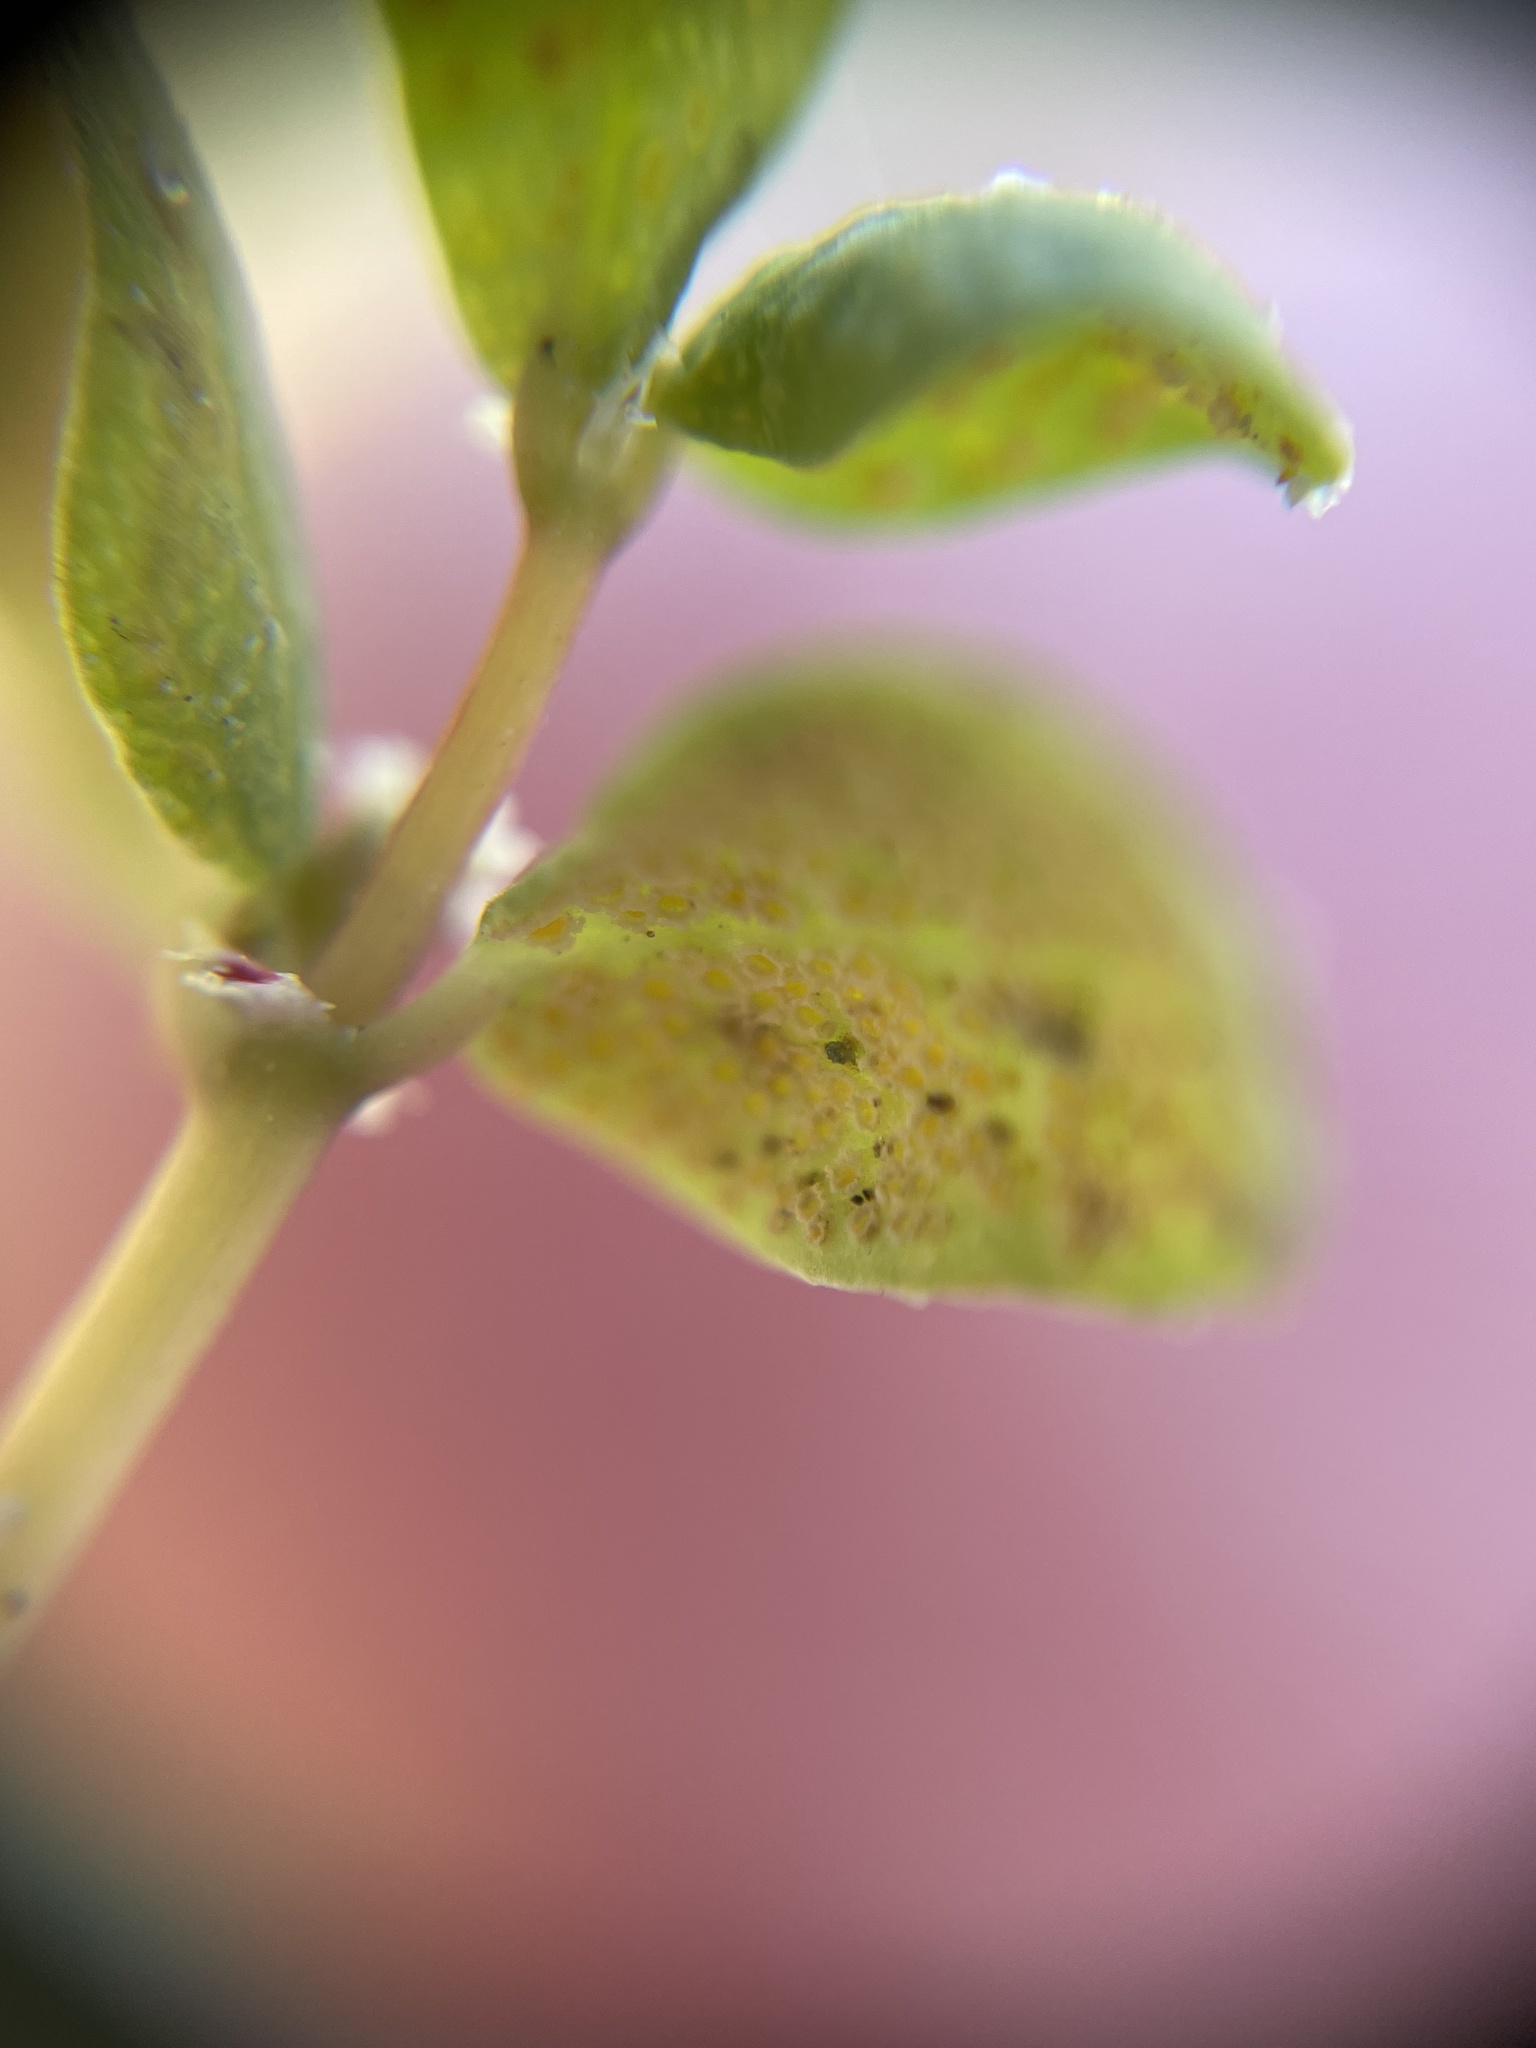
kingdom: Fungi
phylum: Basidiomycota
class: Pucciniomycetes
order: Pucciniales
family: Pucciniaceae
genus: Uromyces
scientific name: Uromyces proeminens
